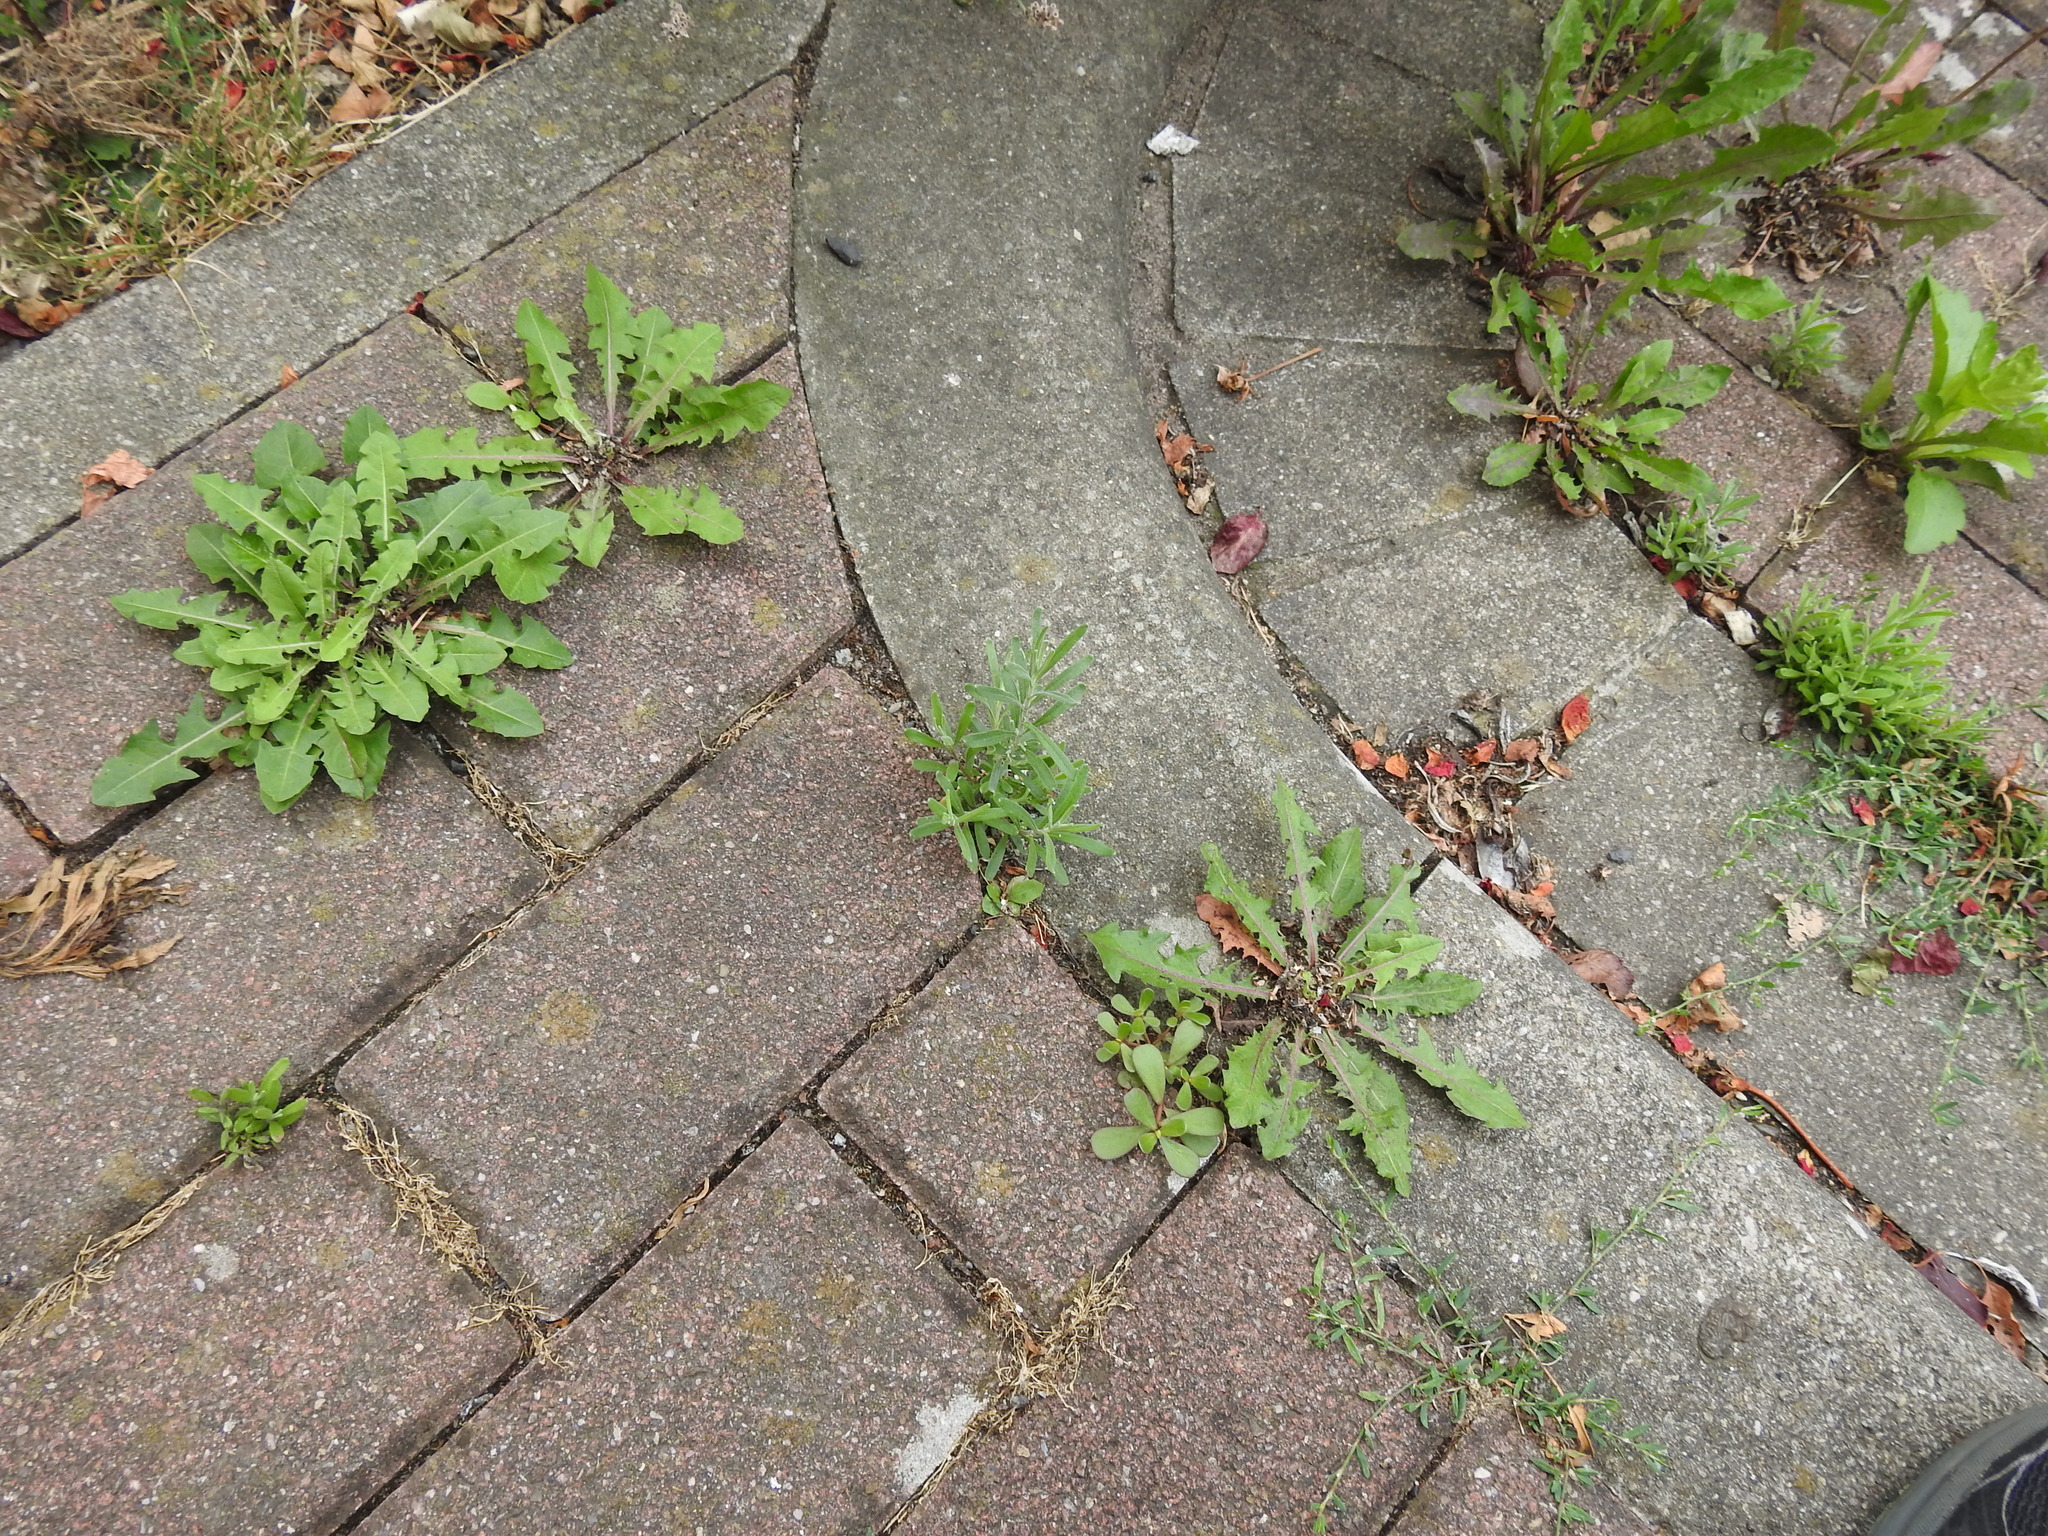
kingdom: Plantae
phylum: Tracheophyta
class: Magnoliopsida
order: Lamiales
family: Lamiaceae
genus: Lavandula
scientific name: Lavandula angustifolia
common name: Garden lavender
